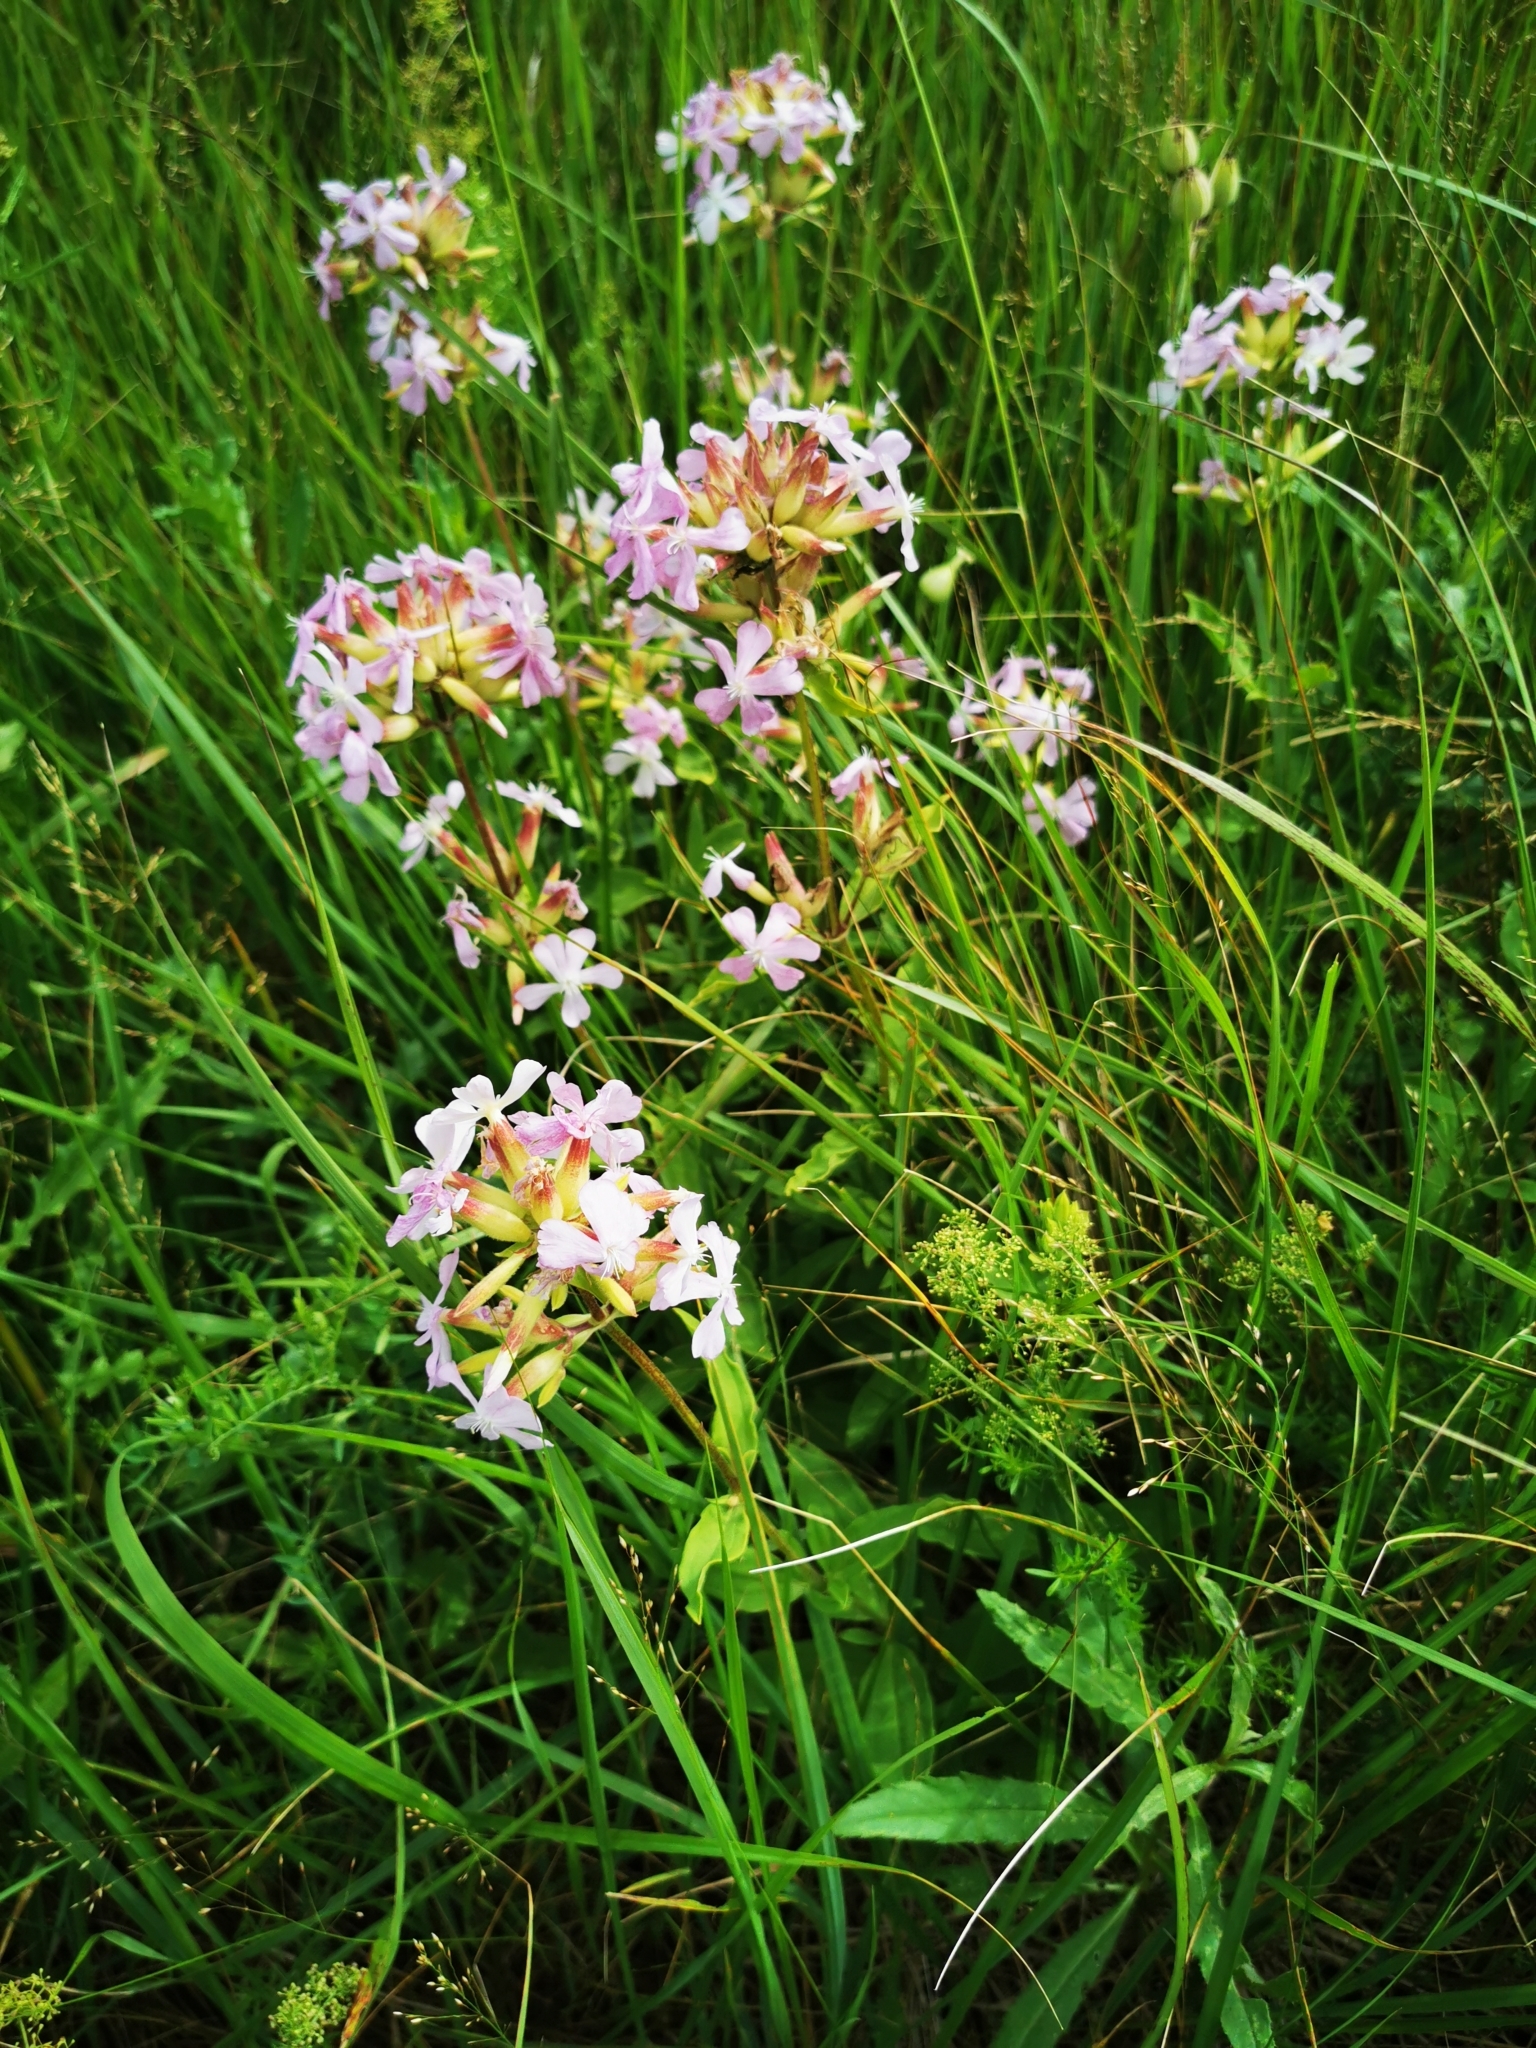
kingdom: Plantae
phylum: Tracheophyta
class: Magnoliopsida
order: Caryophyllales
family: Caryophyllaceae
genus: Saponaria
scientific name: Saponaria officinalis
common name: Soapwort
